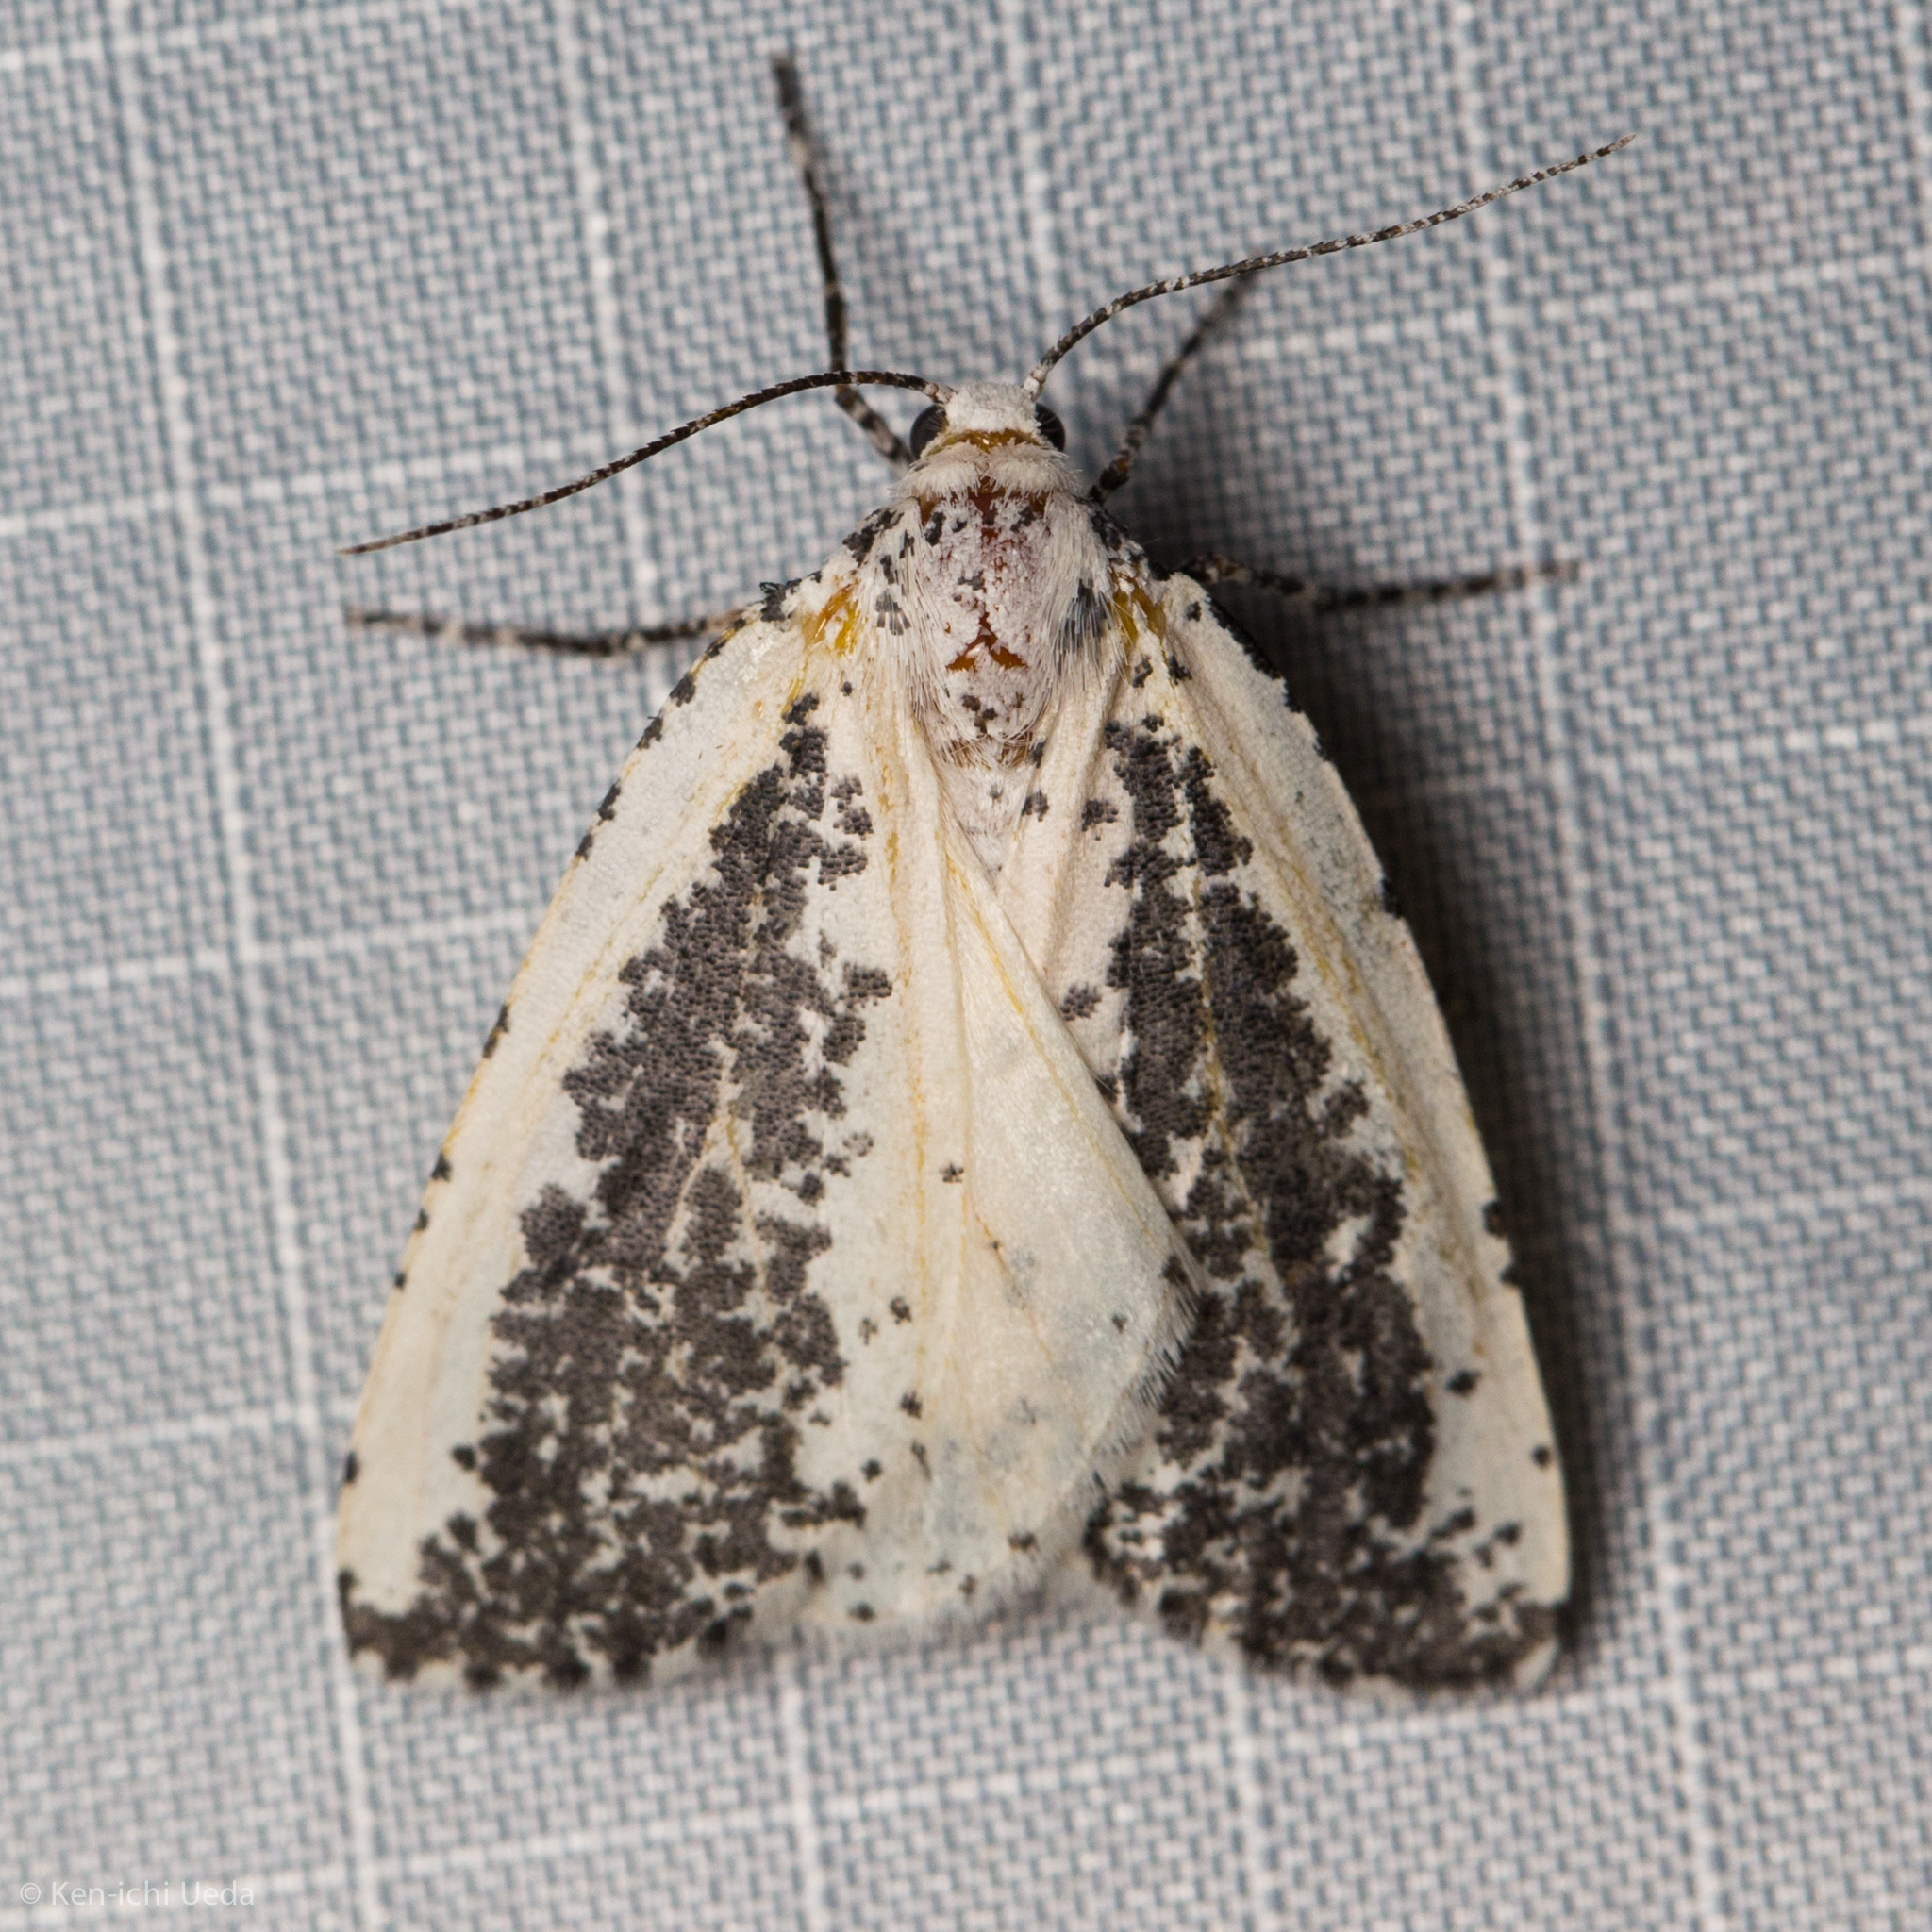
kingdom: Animalia
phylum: Arthropoda
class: Insecta
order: Lepidoptera
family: Geometridae
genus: Eucaterva
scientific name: Eucaterva variaria
